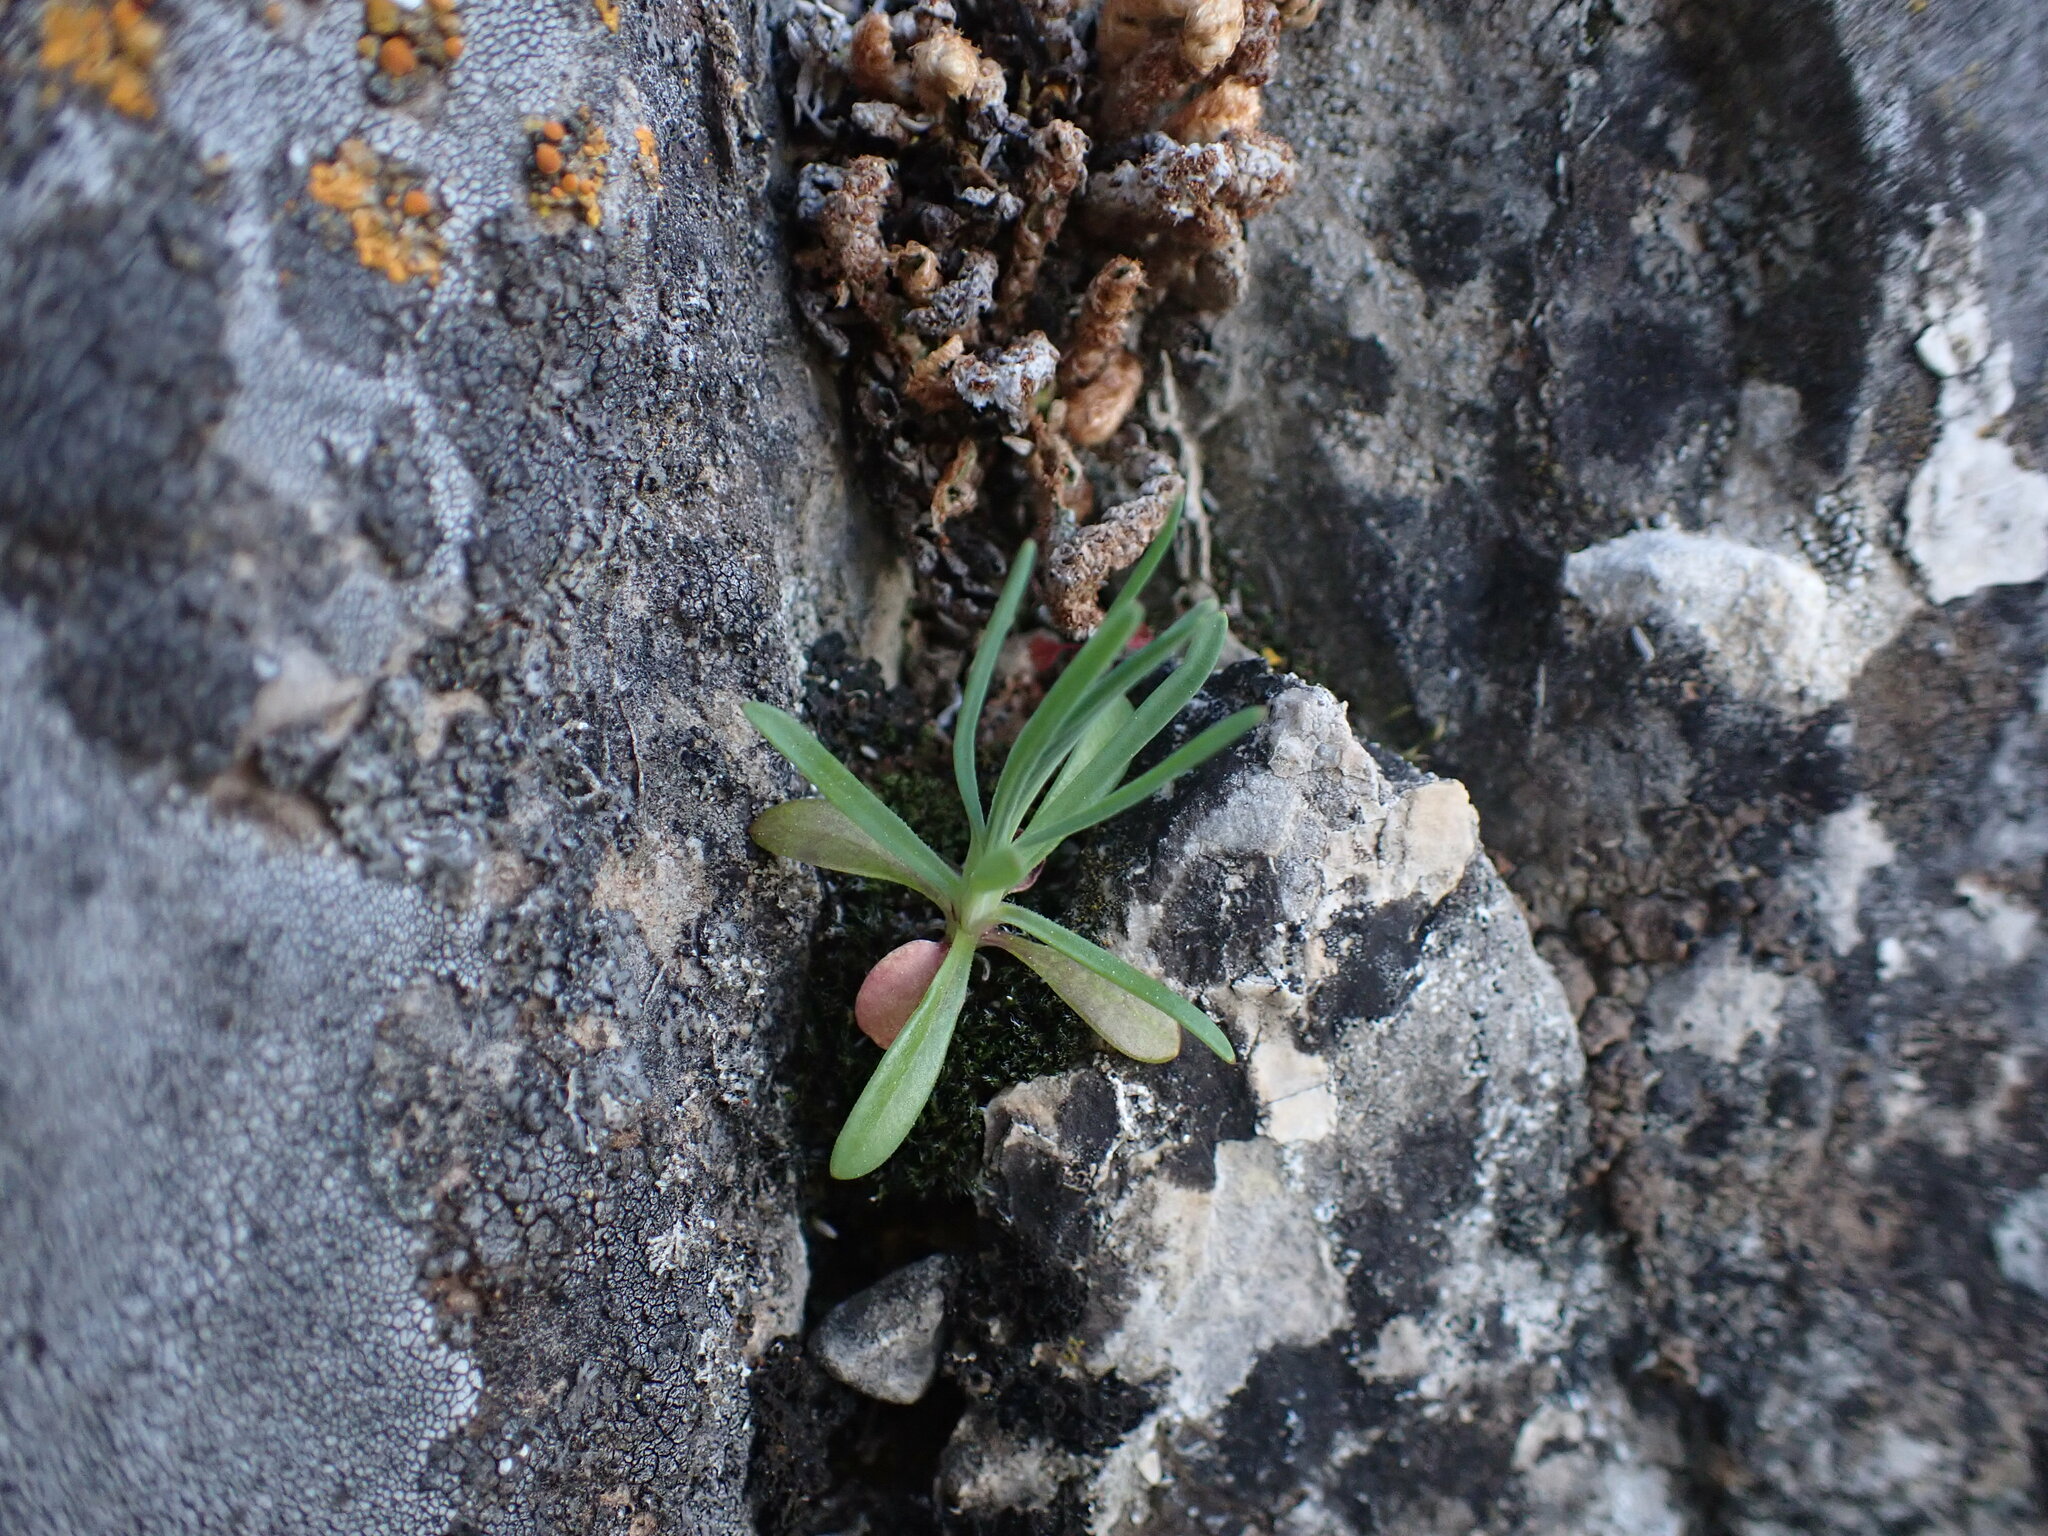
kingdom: Plantae
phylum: Tracheophyta
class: Magnoliopsida
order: Caryophyllales
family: Caryophyllaceae
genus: Petrorhagia
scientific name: Petrorhagia prolifera
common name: Proliferous pink
